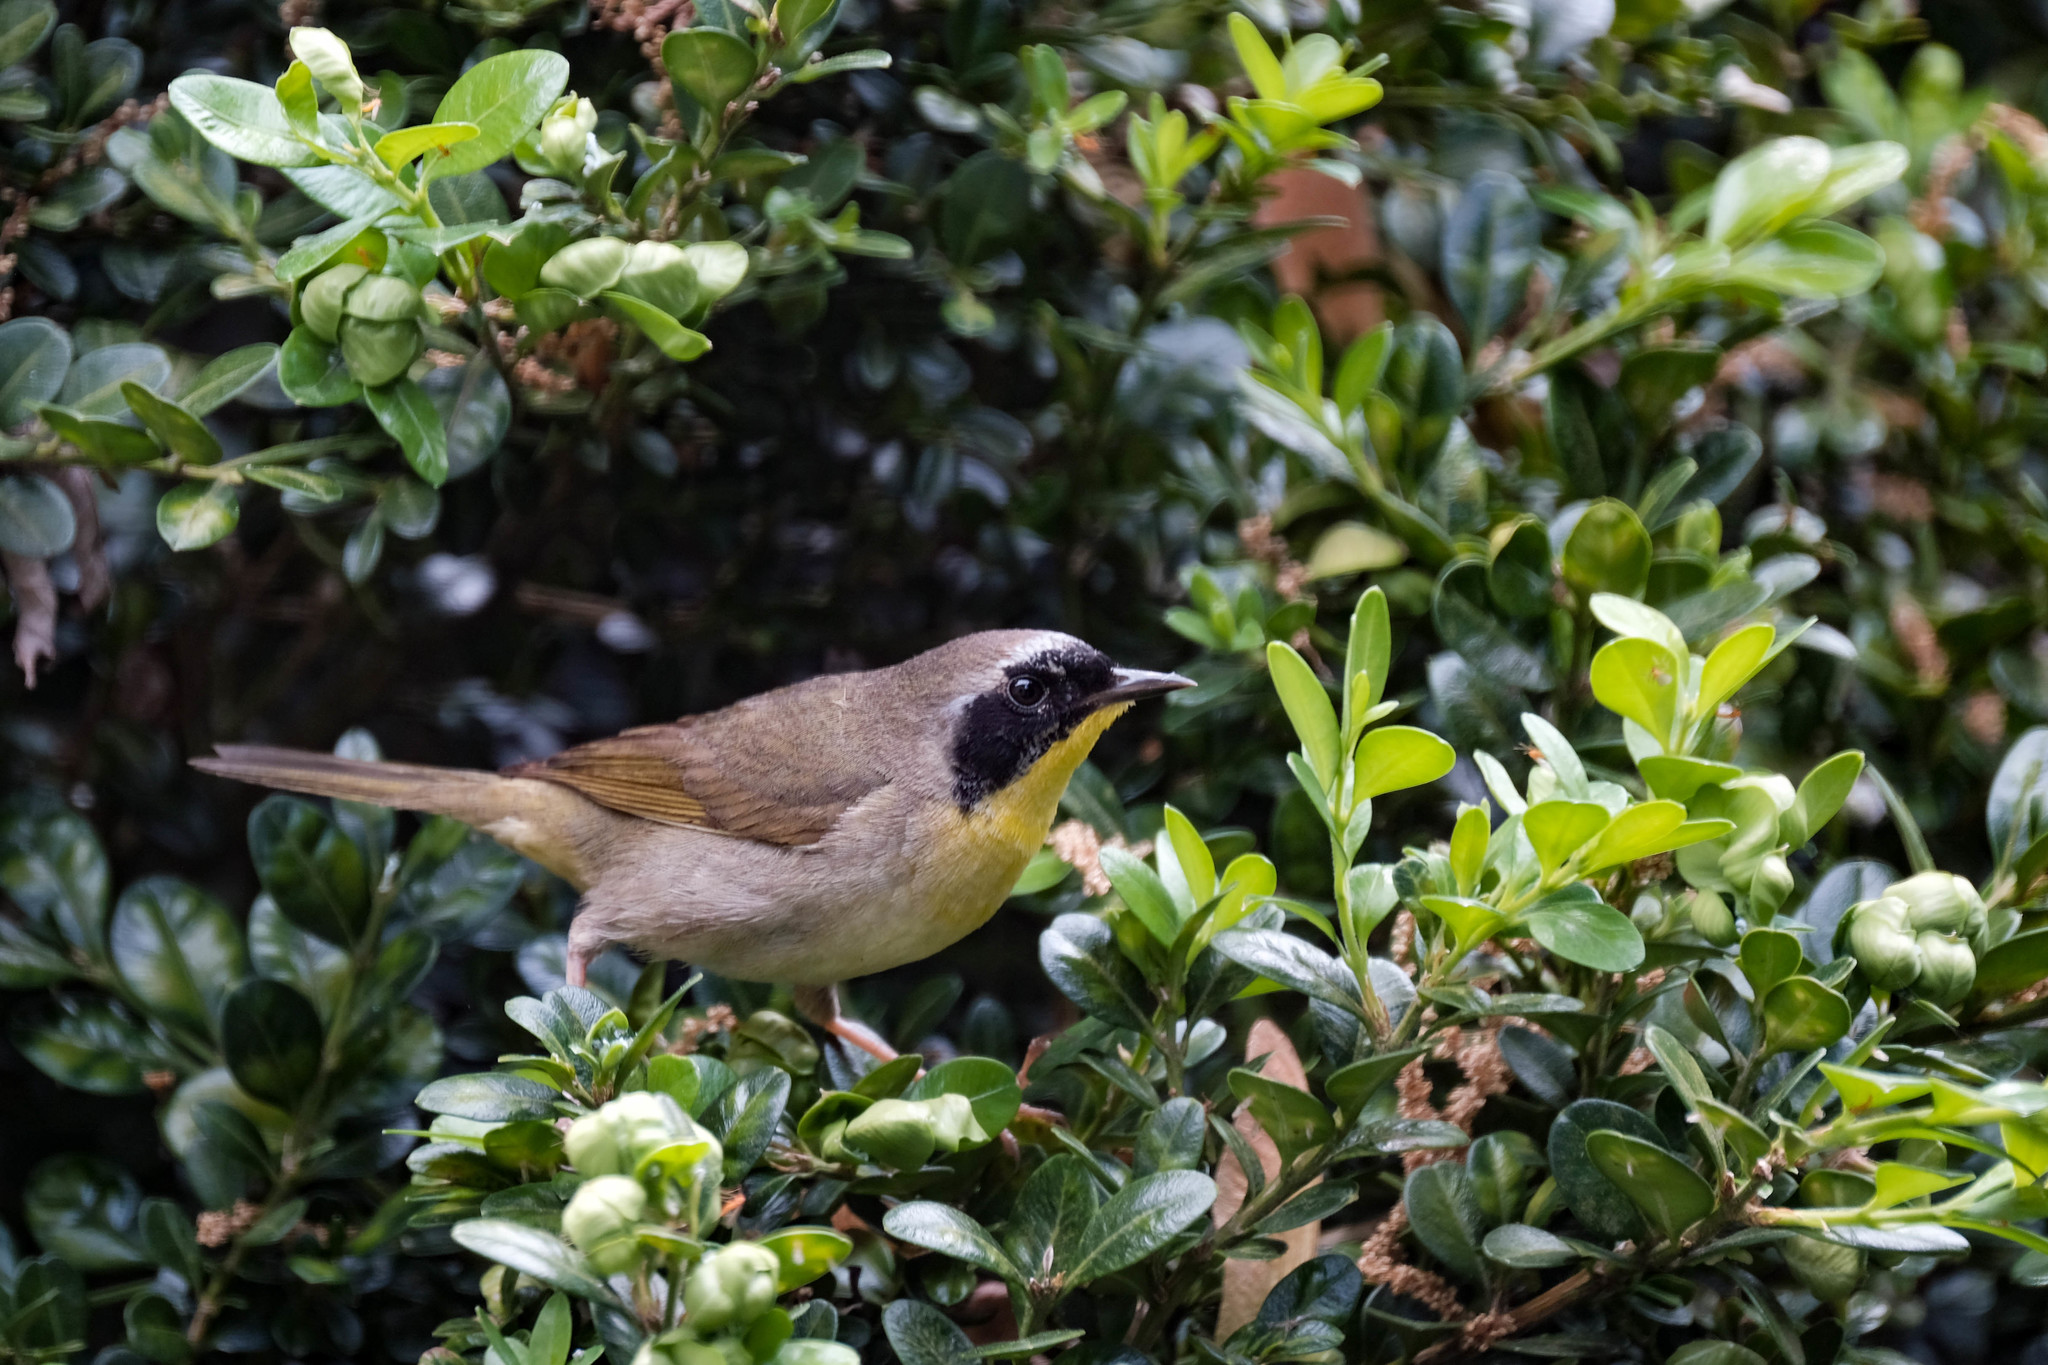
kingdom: Animalia
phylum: Chordata
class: Aves
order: Passeriformes
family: Parulidae
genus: Geothlypis
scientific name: Geothlypis trichas
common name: Common yellowthroat
